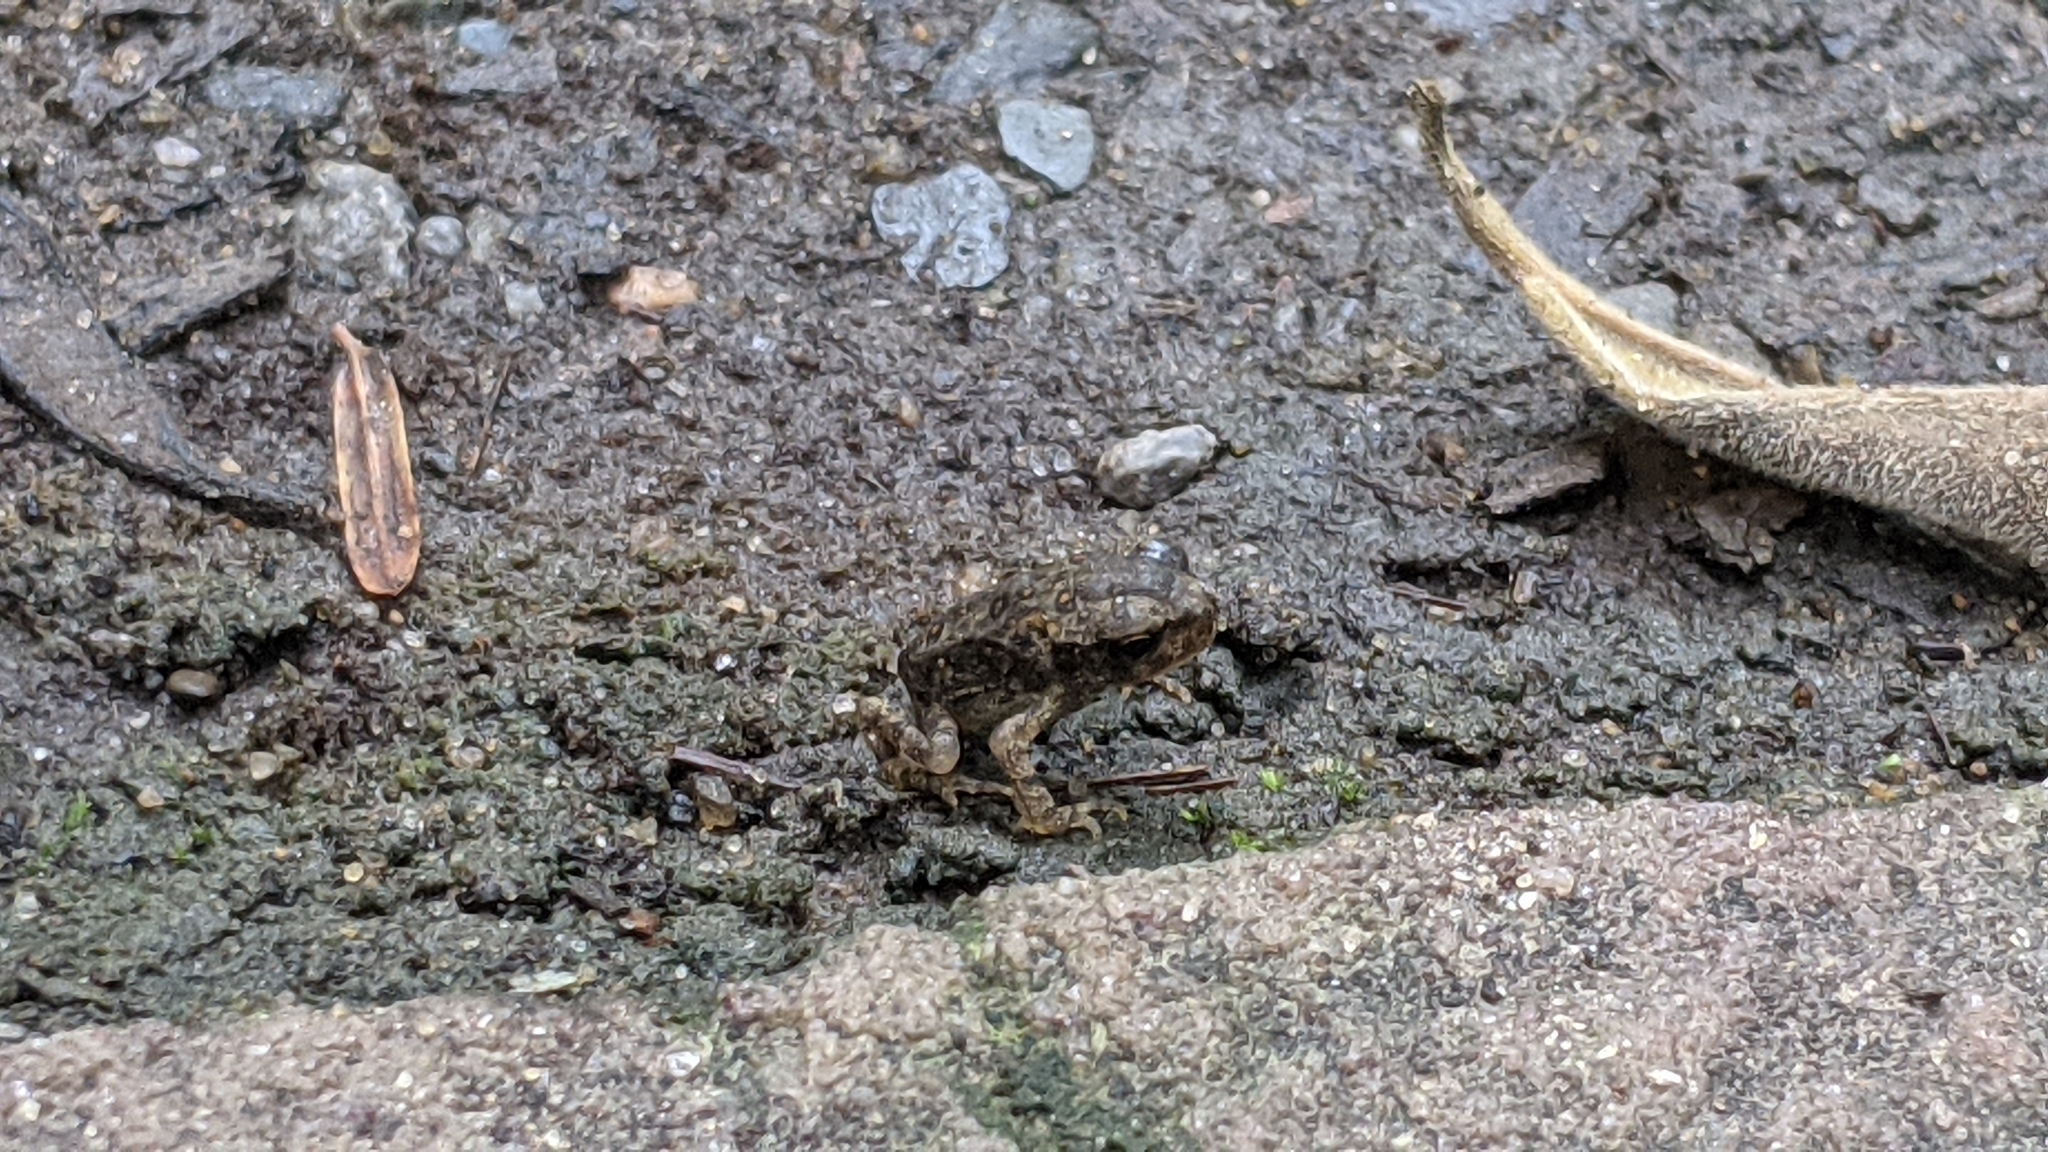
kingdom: Animalia
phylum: Chordata
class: Amphibia
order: Anura
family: Bufonidae
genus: Anaxyrus
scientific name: Anaxyrus americanus
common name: American toad
